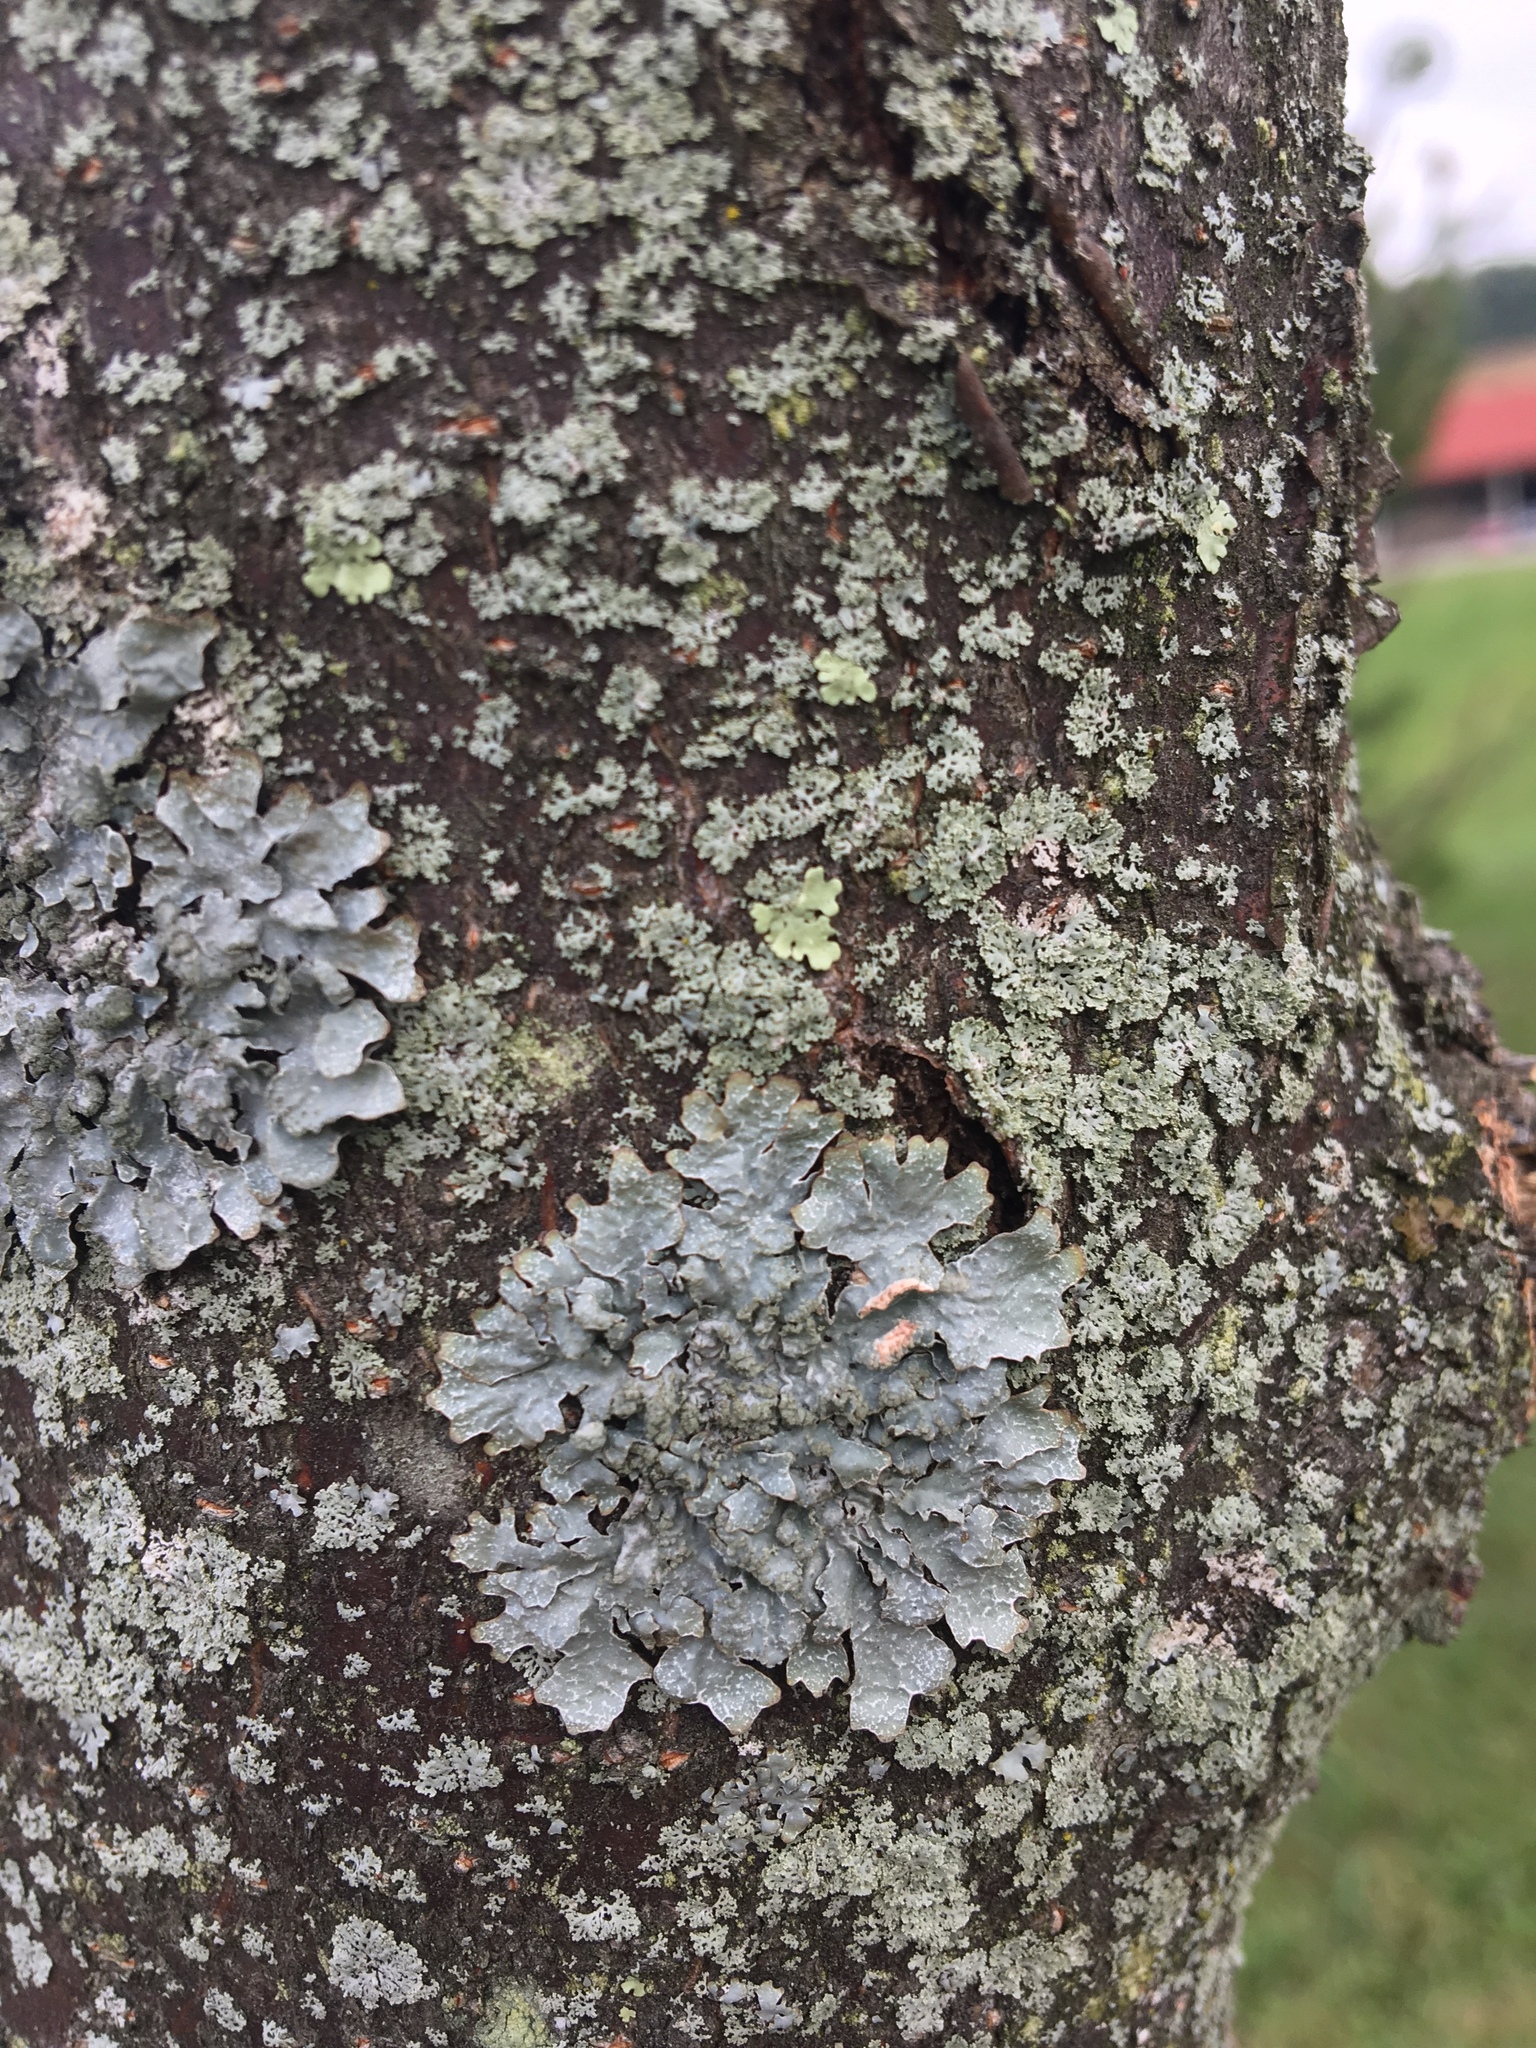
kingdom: Fungi
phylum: Ascomycota
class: Lecanoromycetes
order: Lecanorales
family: Parmeliaceae
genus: Parmelia
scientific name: Parmelia sulcata
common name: Netted shield lichen
